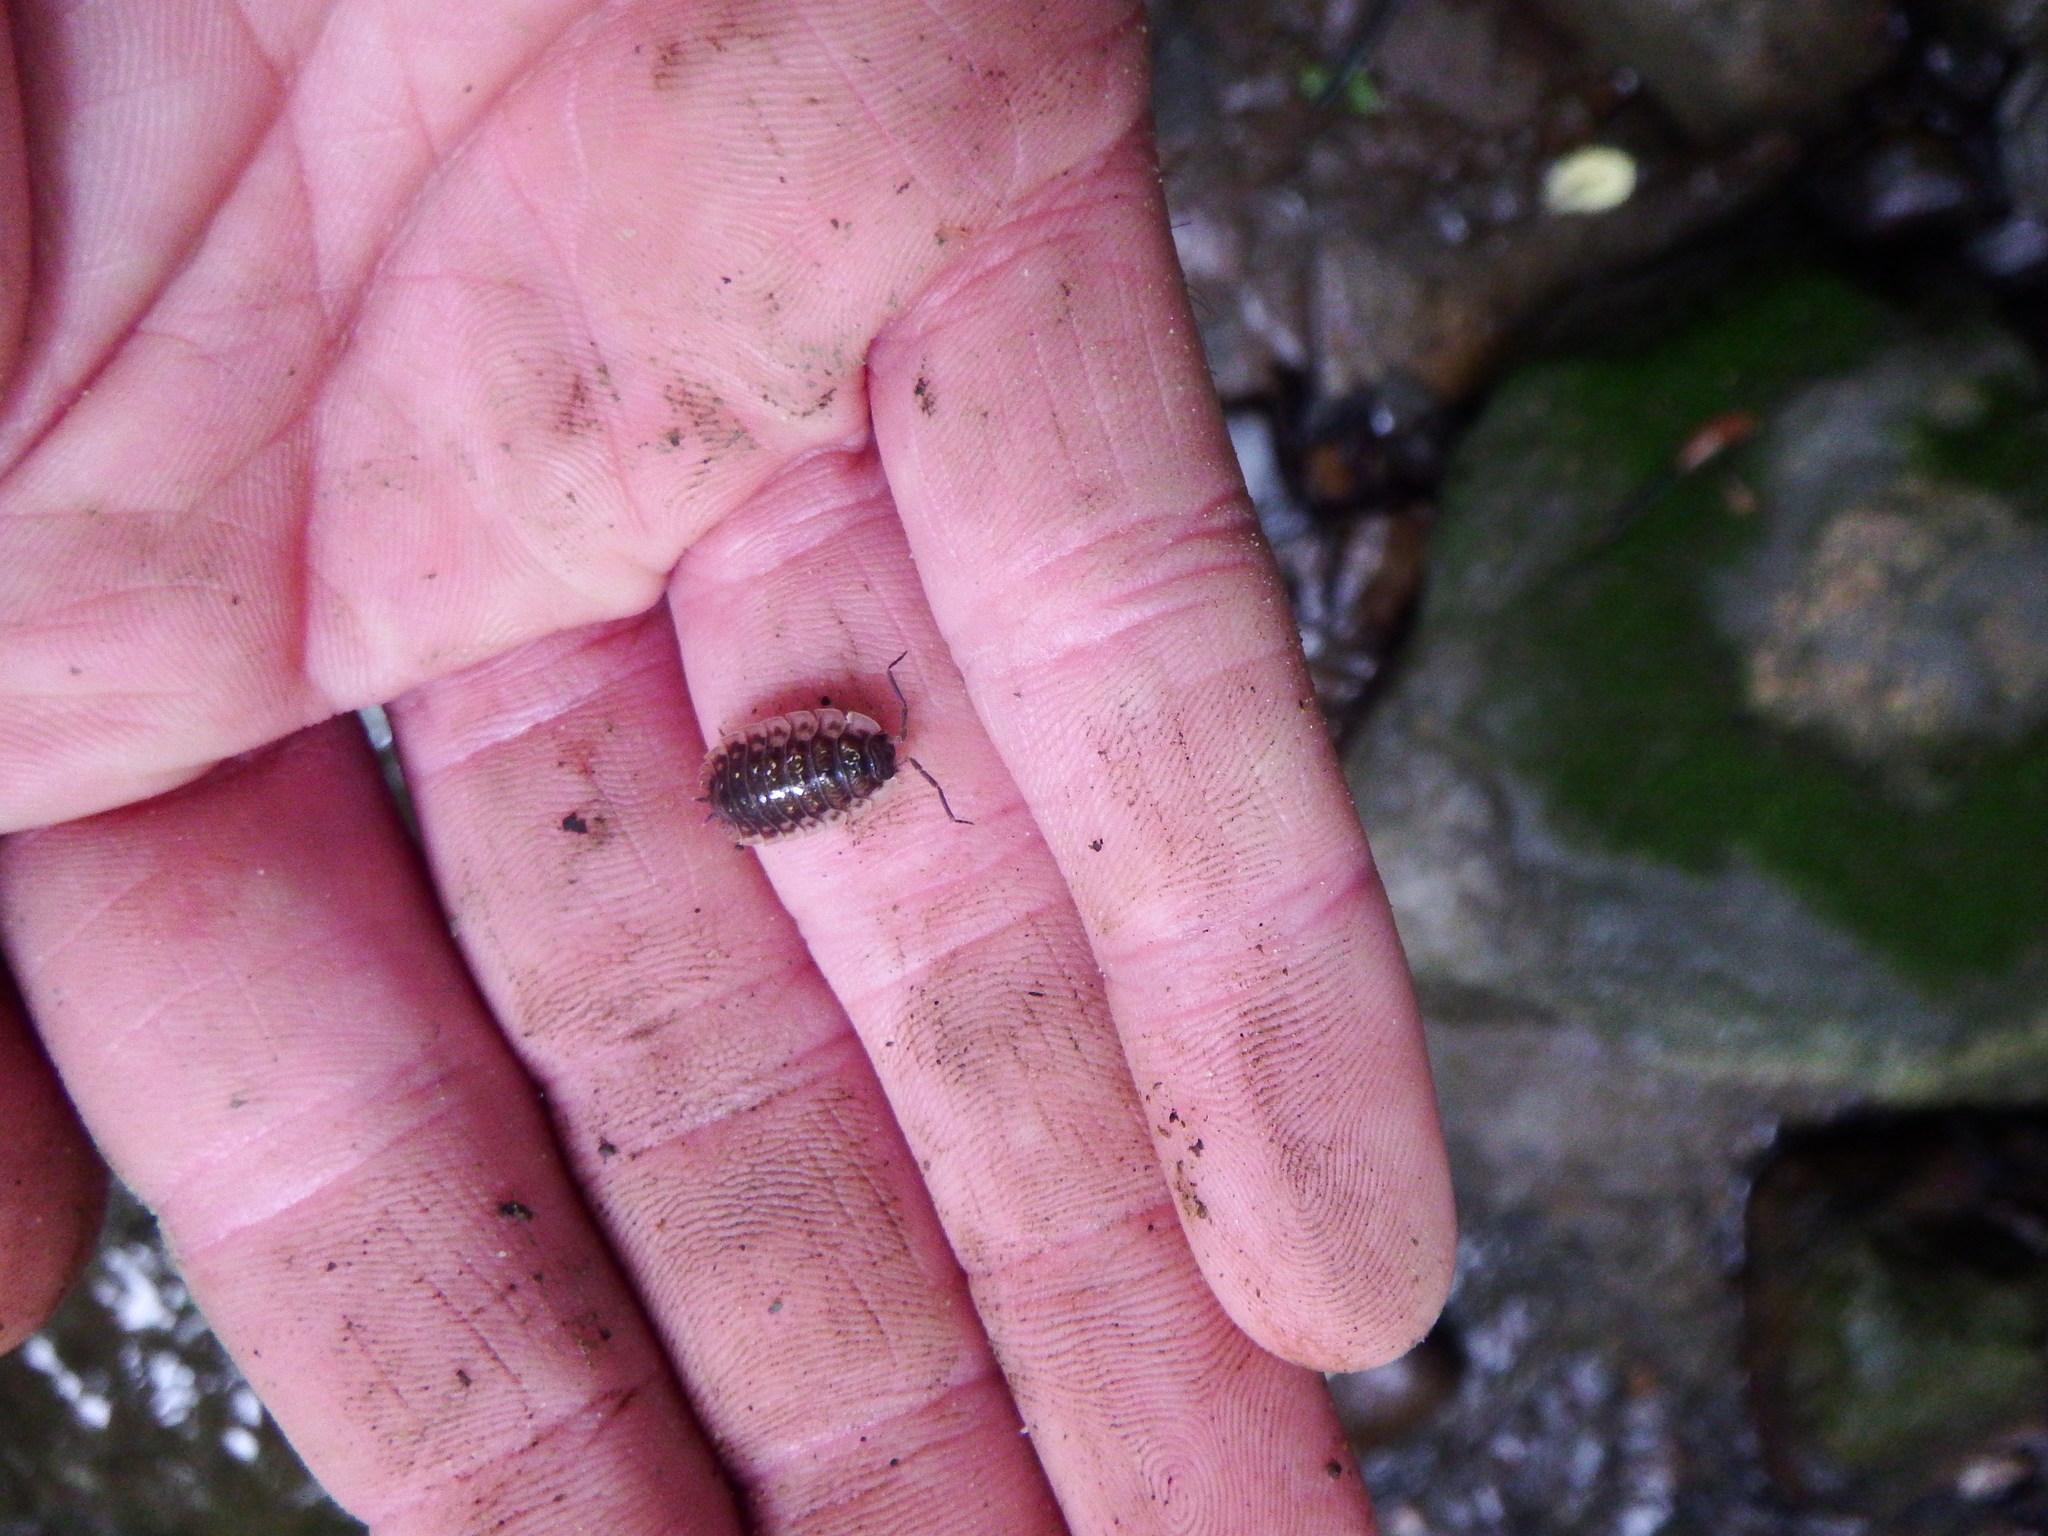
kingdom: Animalia
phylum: Arthropoda
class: Malacostraca
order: Isopoda
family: Oniscidae
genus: Oniscus
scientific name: Oniscus asellus
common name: Common shiny woodlouse
